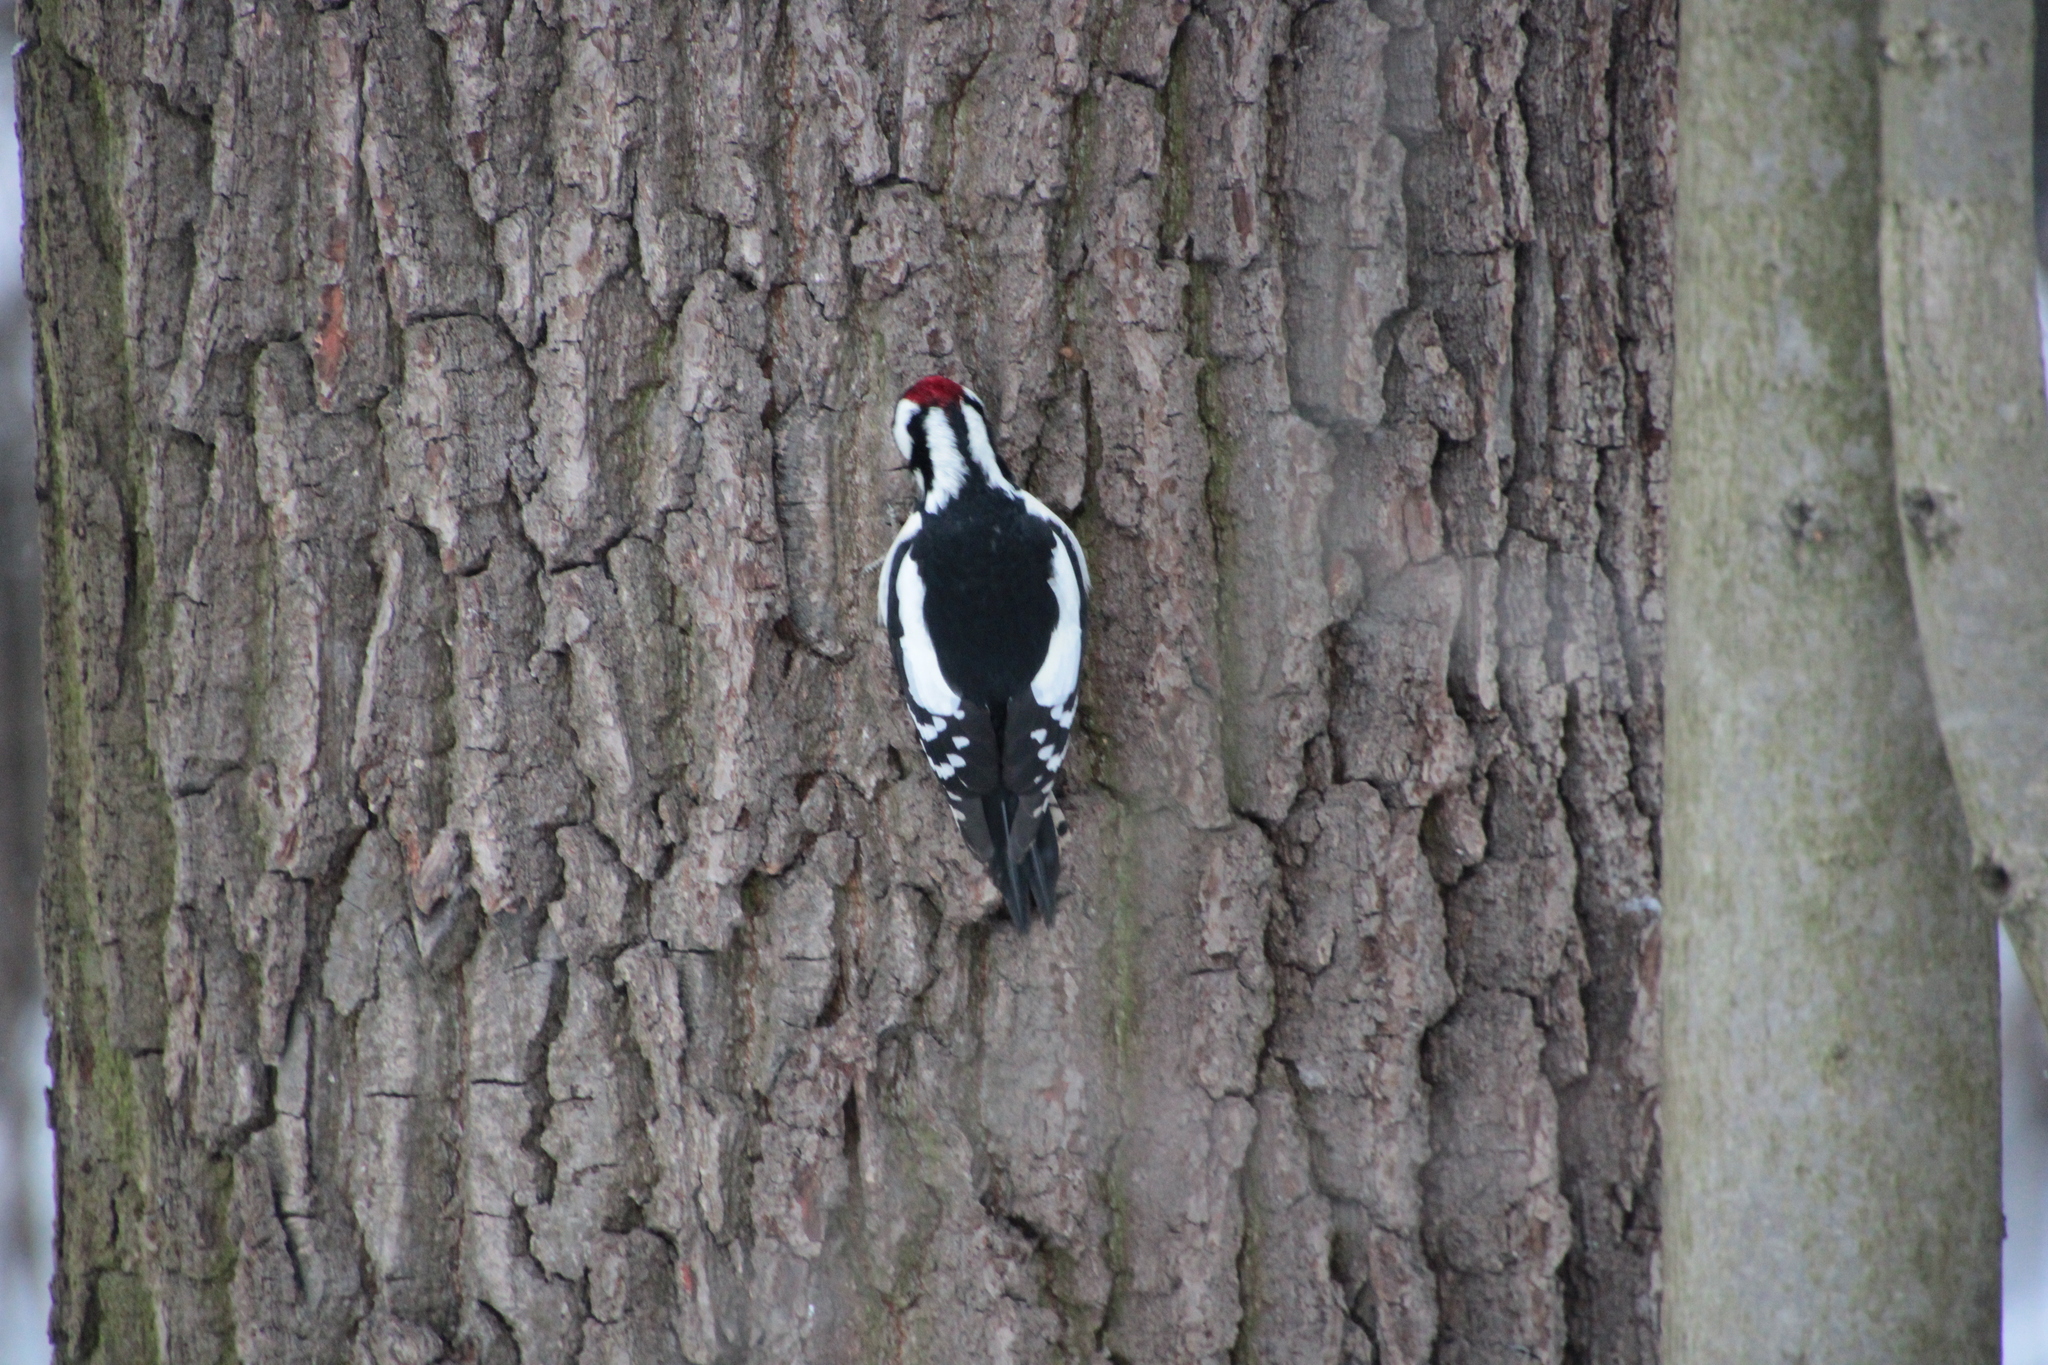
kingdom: Animalia
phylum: Chordata
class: Aves
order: Piciformes
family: Picidae
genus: Dendrocopos
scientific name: Dendrocopos major
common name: Great spotted woodpecker
